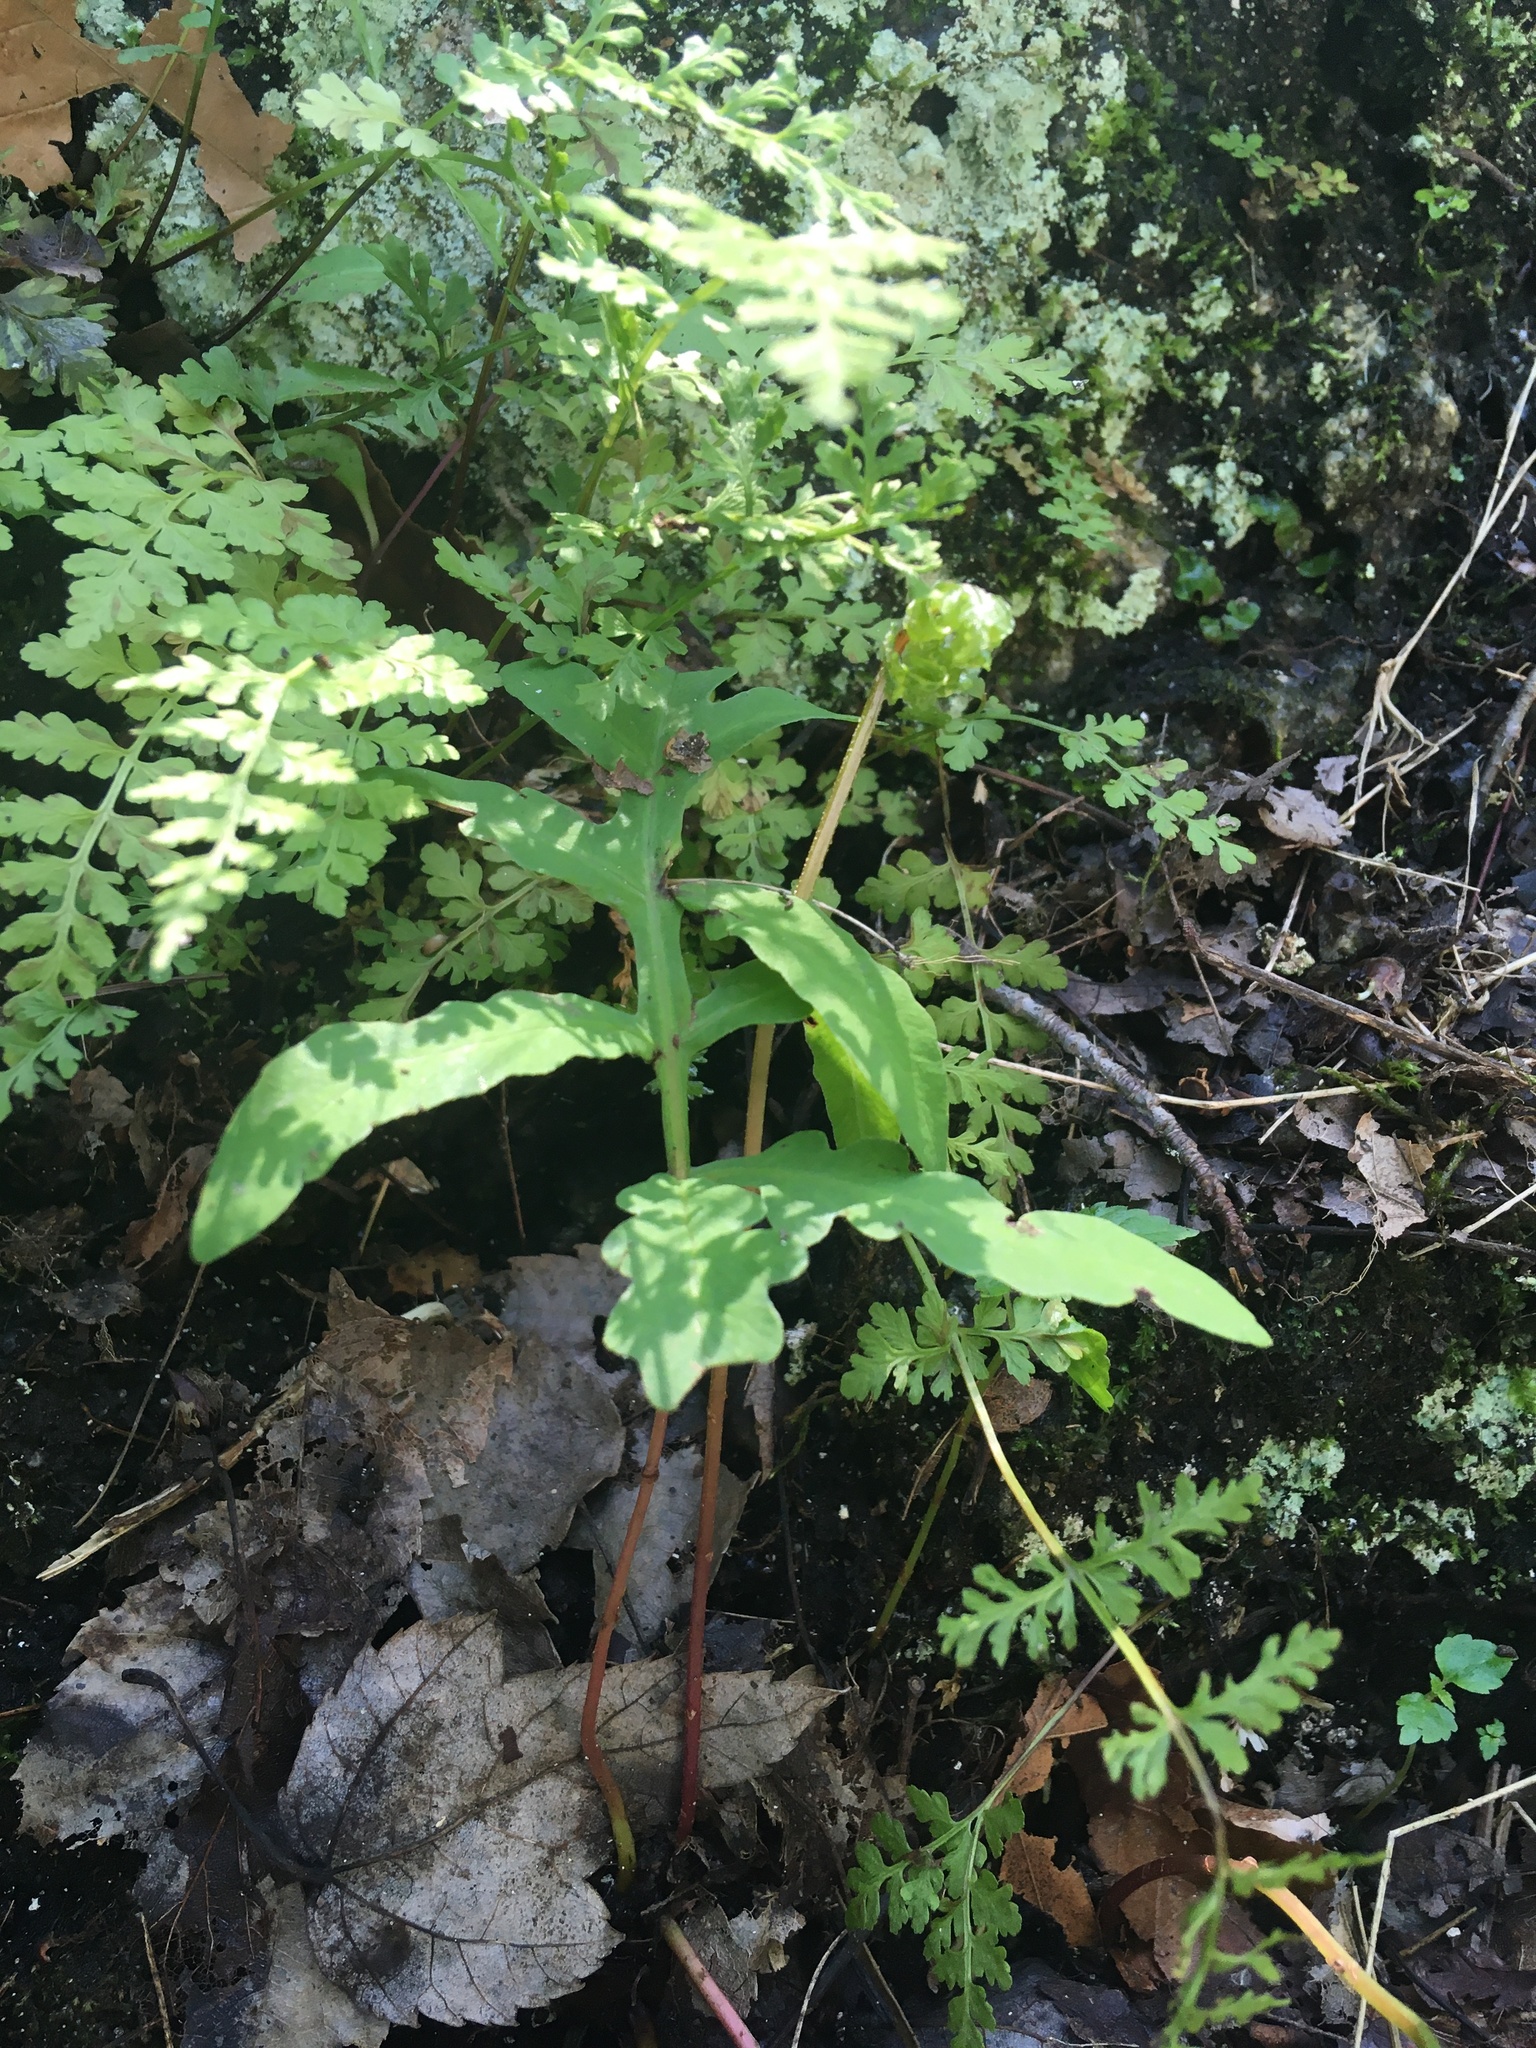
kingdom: Plantae
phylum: Tracheophyta
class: Polypodiopsida
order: Polypodiales
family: Onocleaceae
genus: Onoclea
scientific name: Onoclea sensibilis
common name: Sensitive fern
